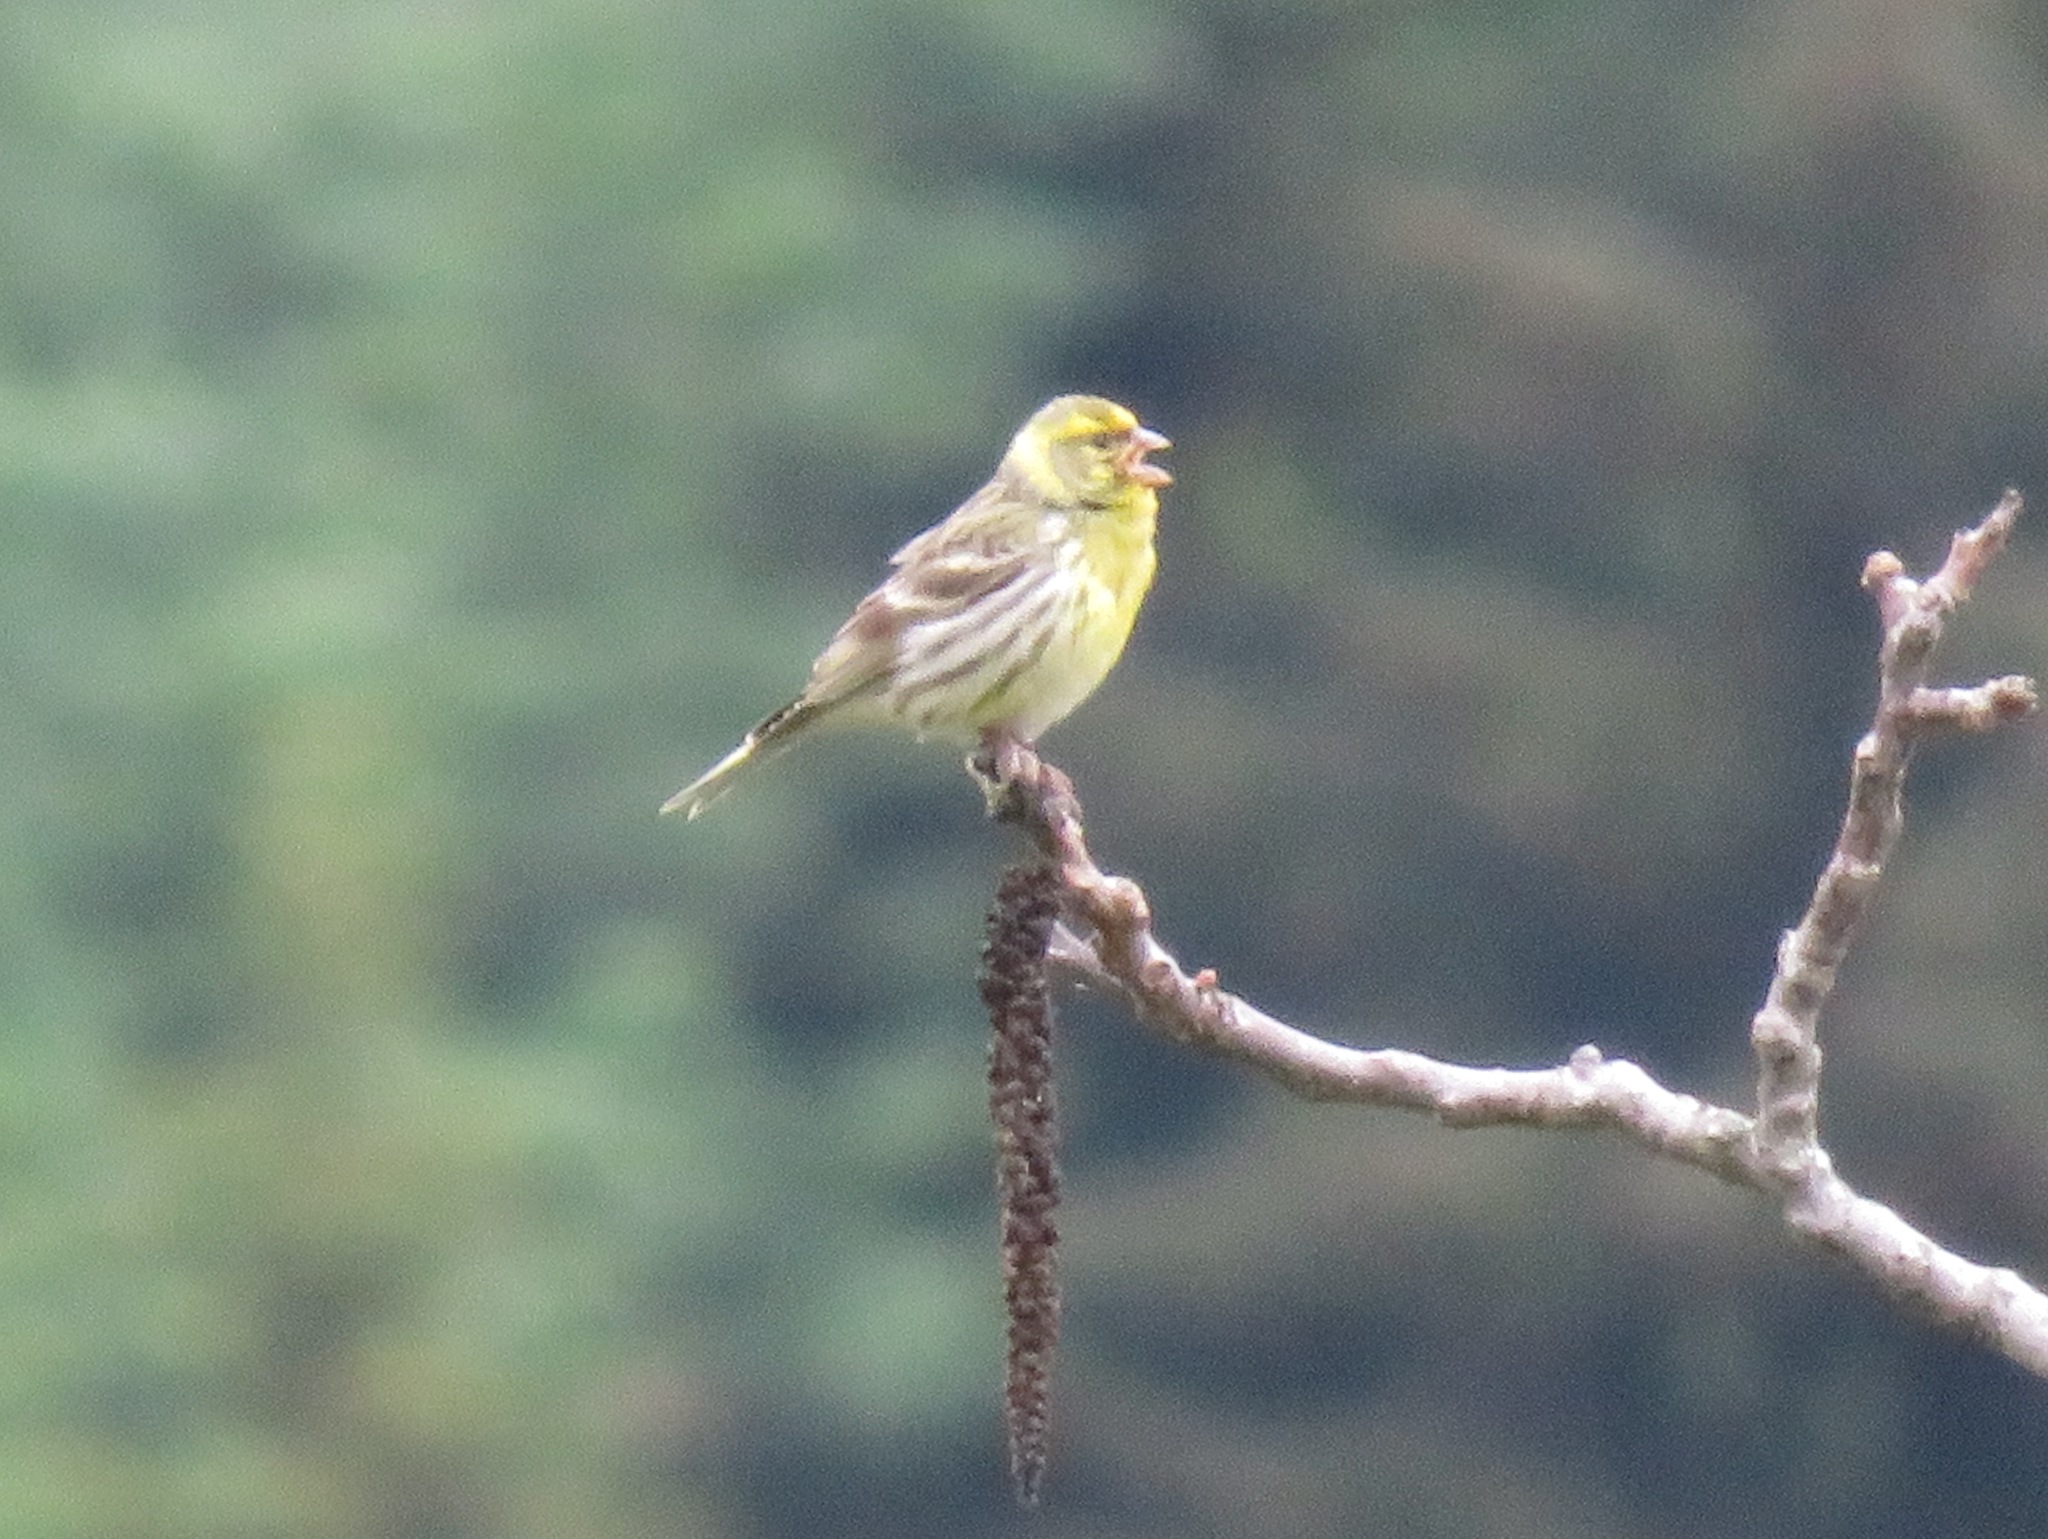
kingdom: Animalia
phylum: Chordata
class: Aves
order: Passeriformes
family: Fringillidae
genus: Serinus
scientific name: Serinus serinus
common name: European serin
